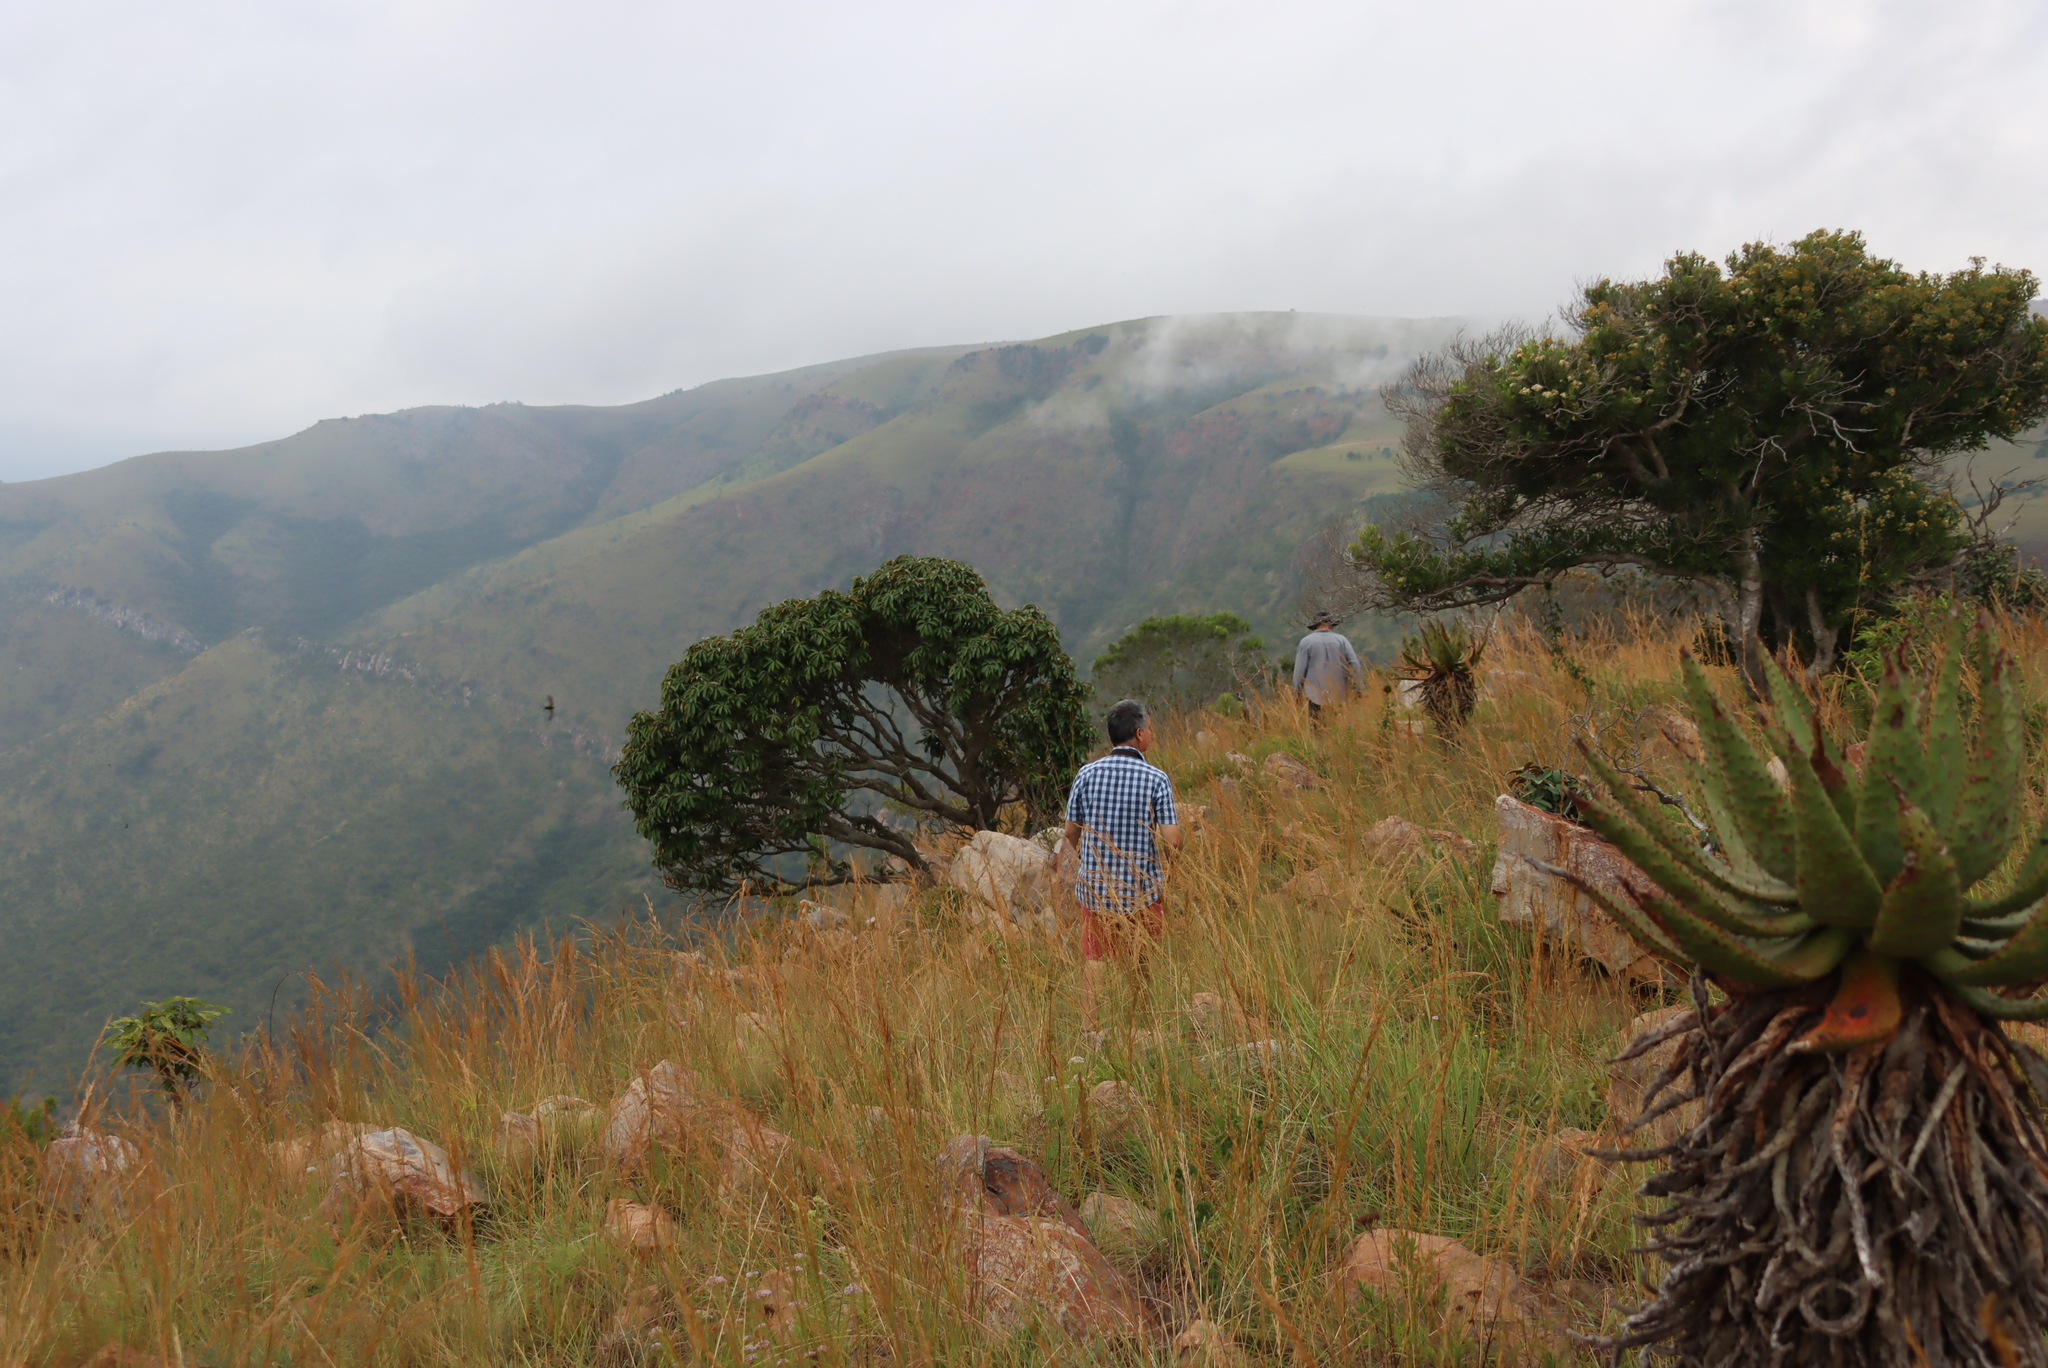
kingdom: Plantae
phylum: Tracheophyta
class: Magnoliopsida
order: Ericales
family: Sapotaceae
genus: Englerophytum
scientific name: Englerophytum magalismontanum
